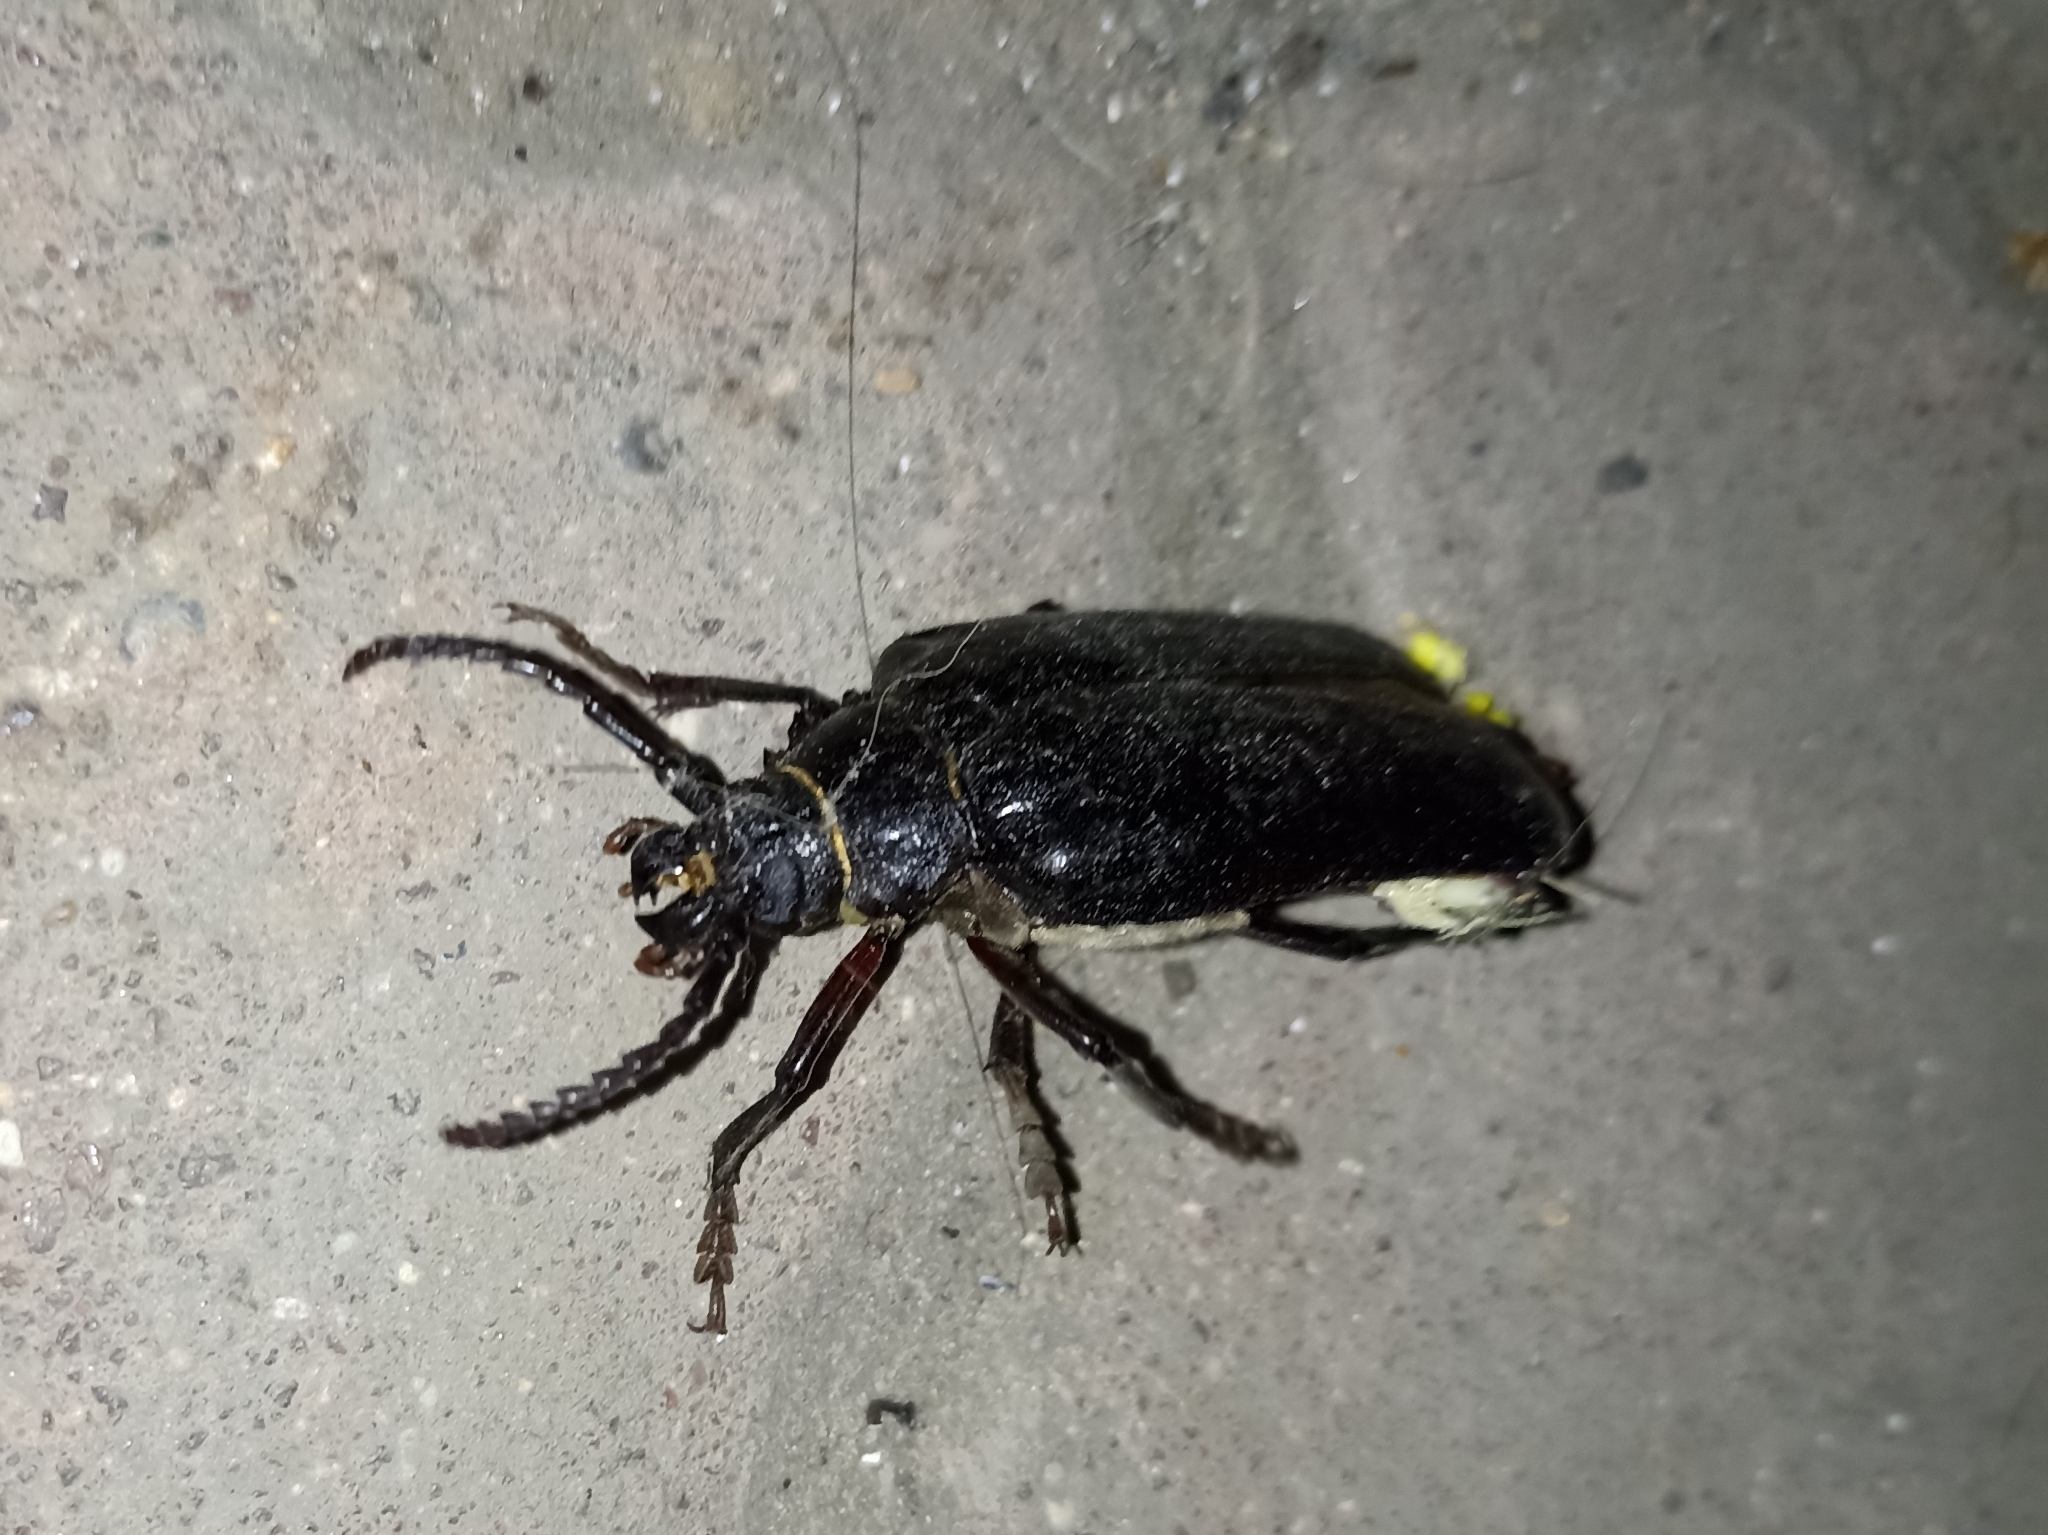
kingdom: Animalia
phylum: Arthropoda
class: Insecta
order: Coleoptera
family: Cerambycidae
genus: Prionus
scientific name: Prionus coriarius
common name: Tanner beetle
